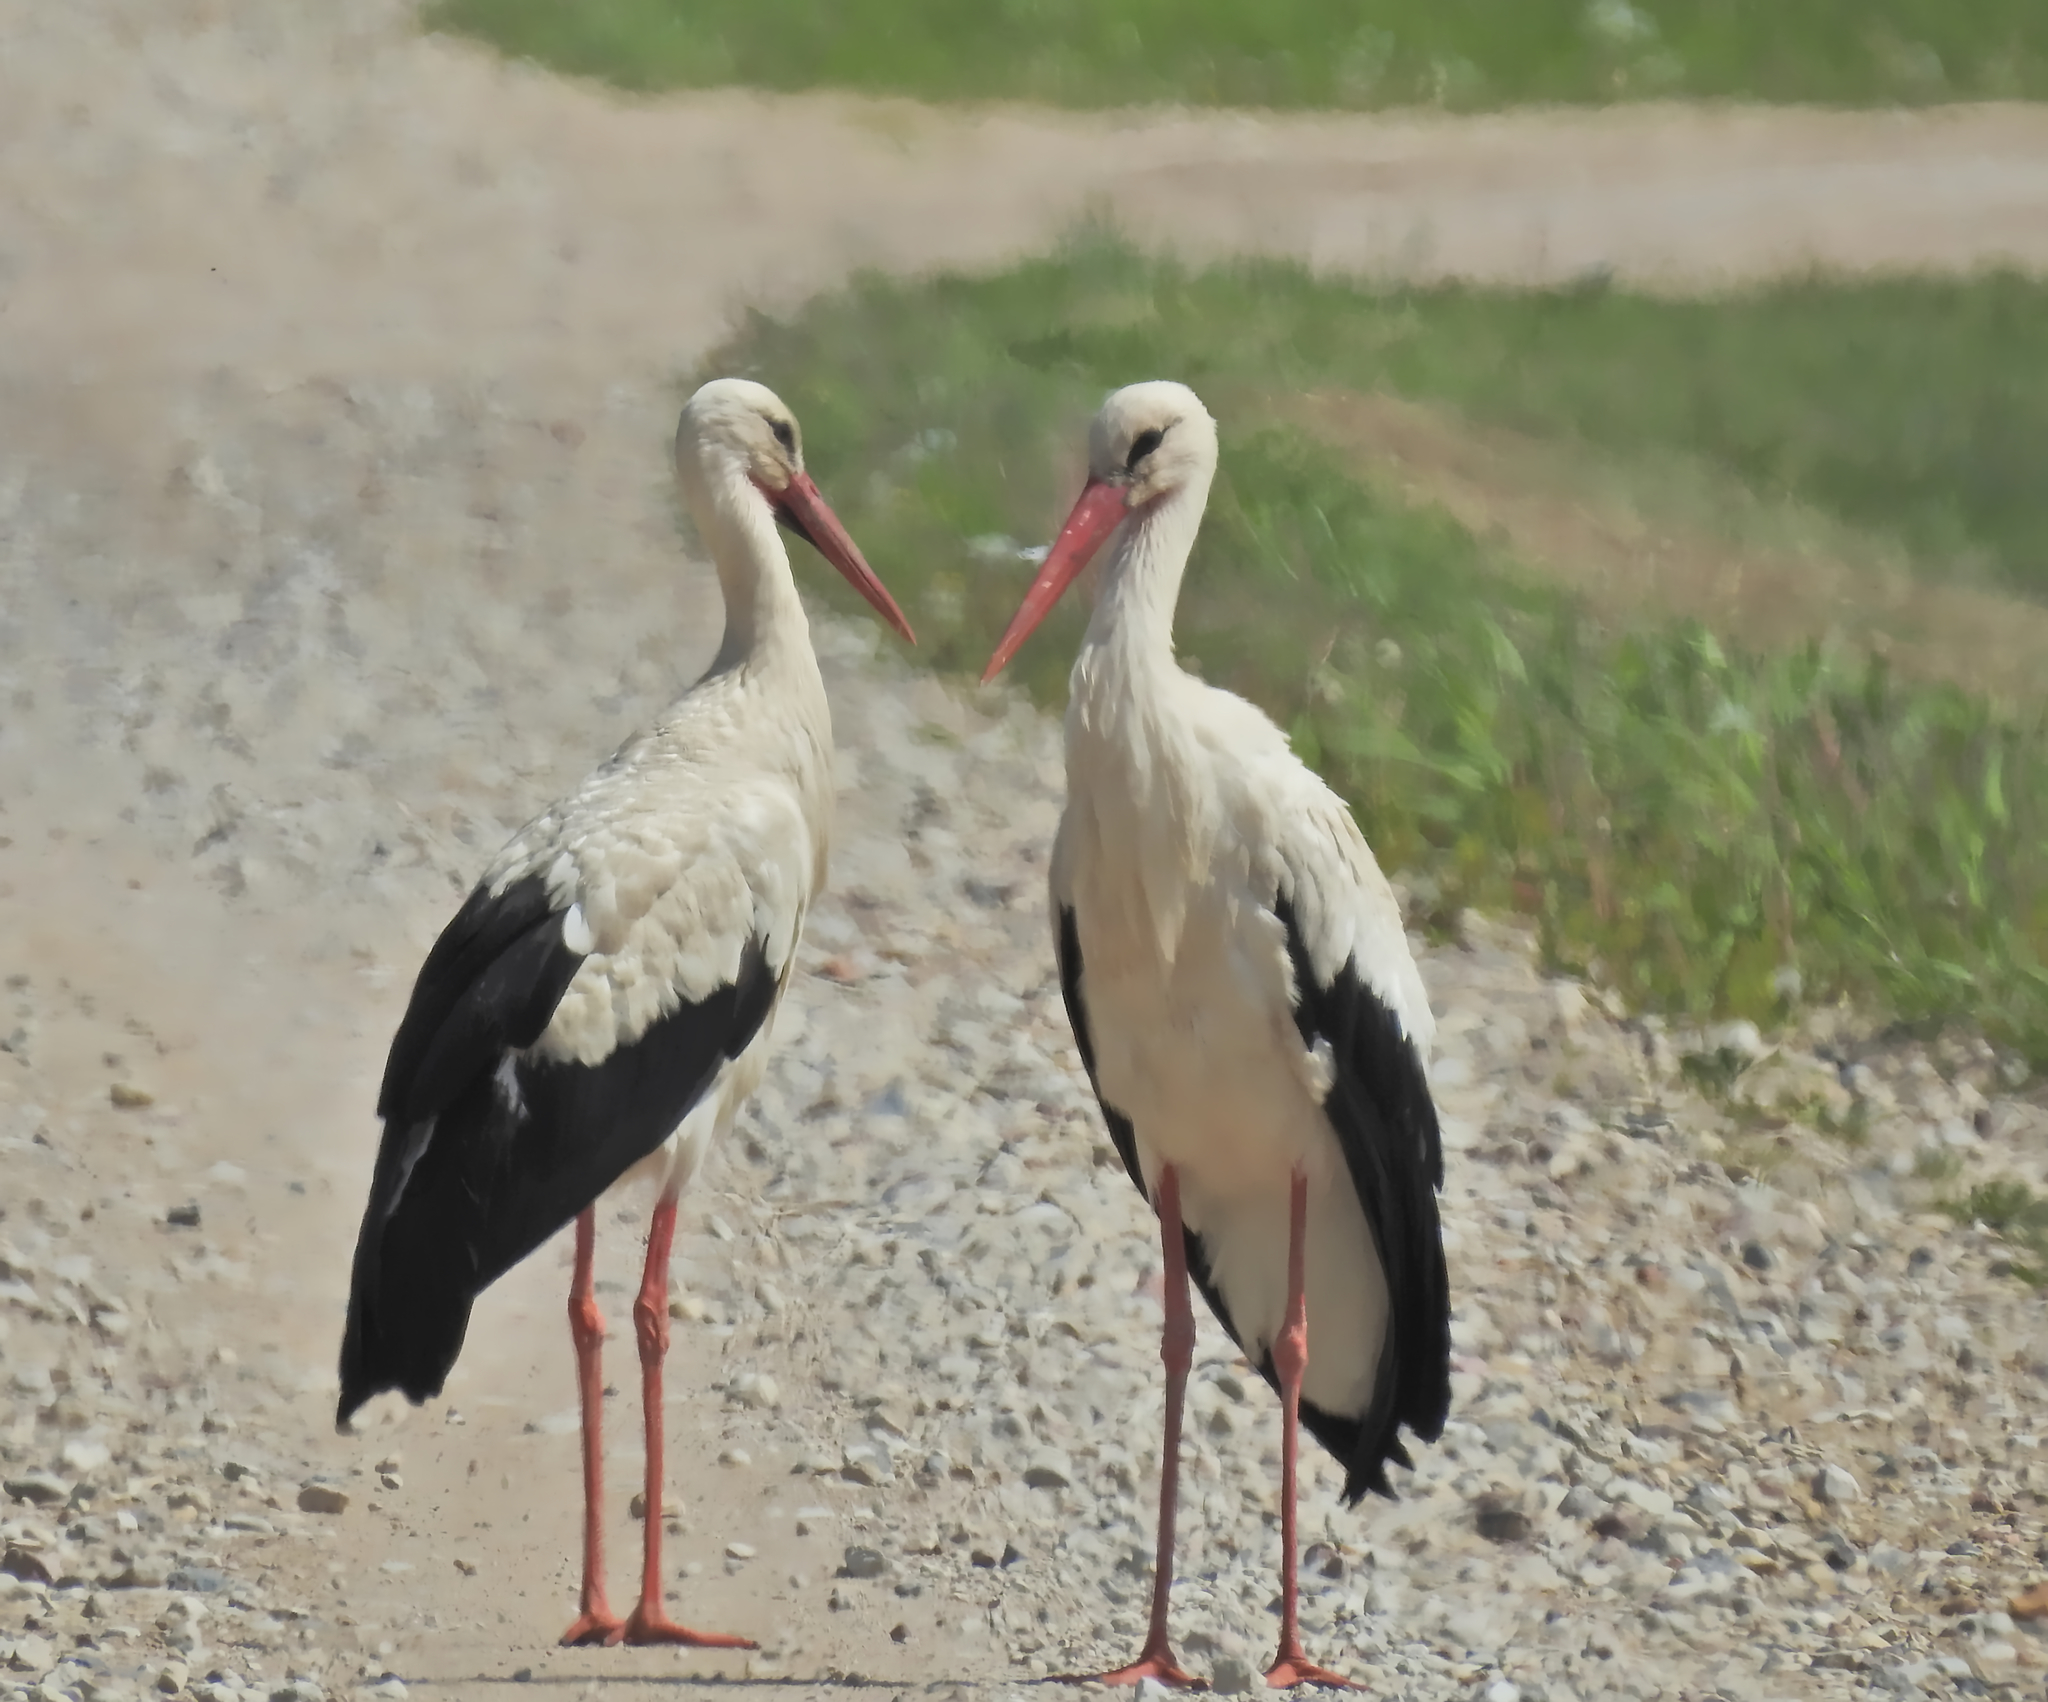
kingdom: Animalia
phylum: Chordata
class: Aves
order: Ciconiiformes
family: Ciconiidae
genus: Ciconia
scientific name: Ciconia ciconia
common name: White stork
